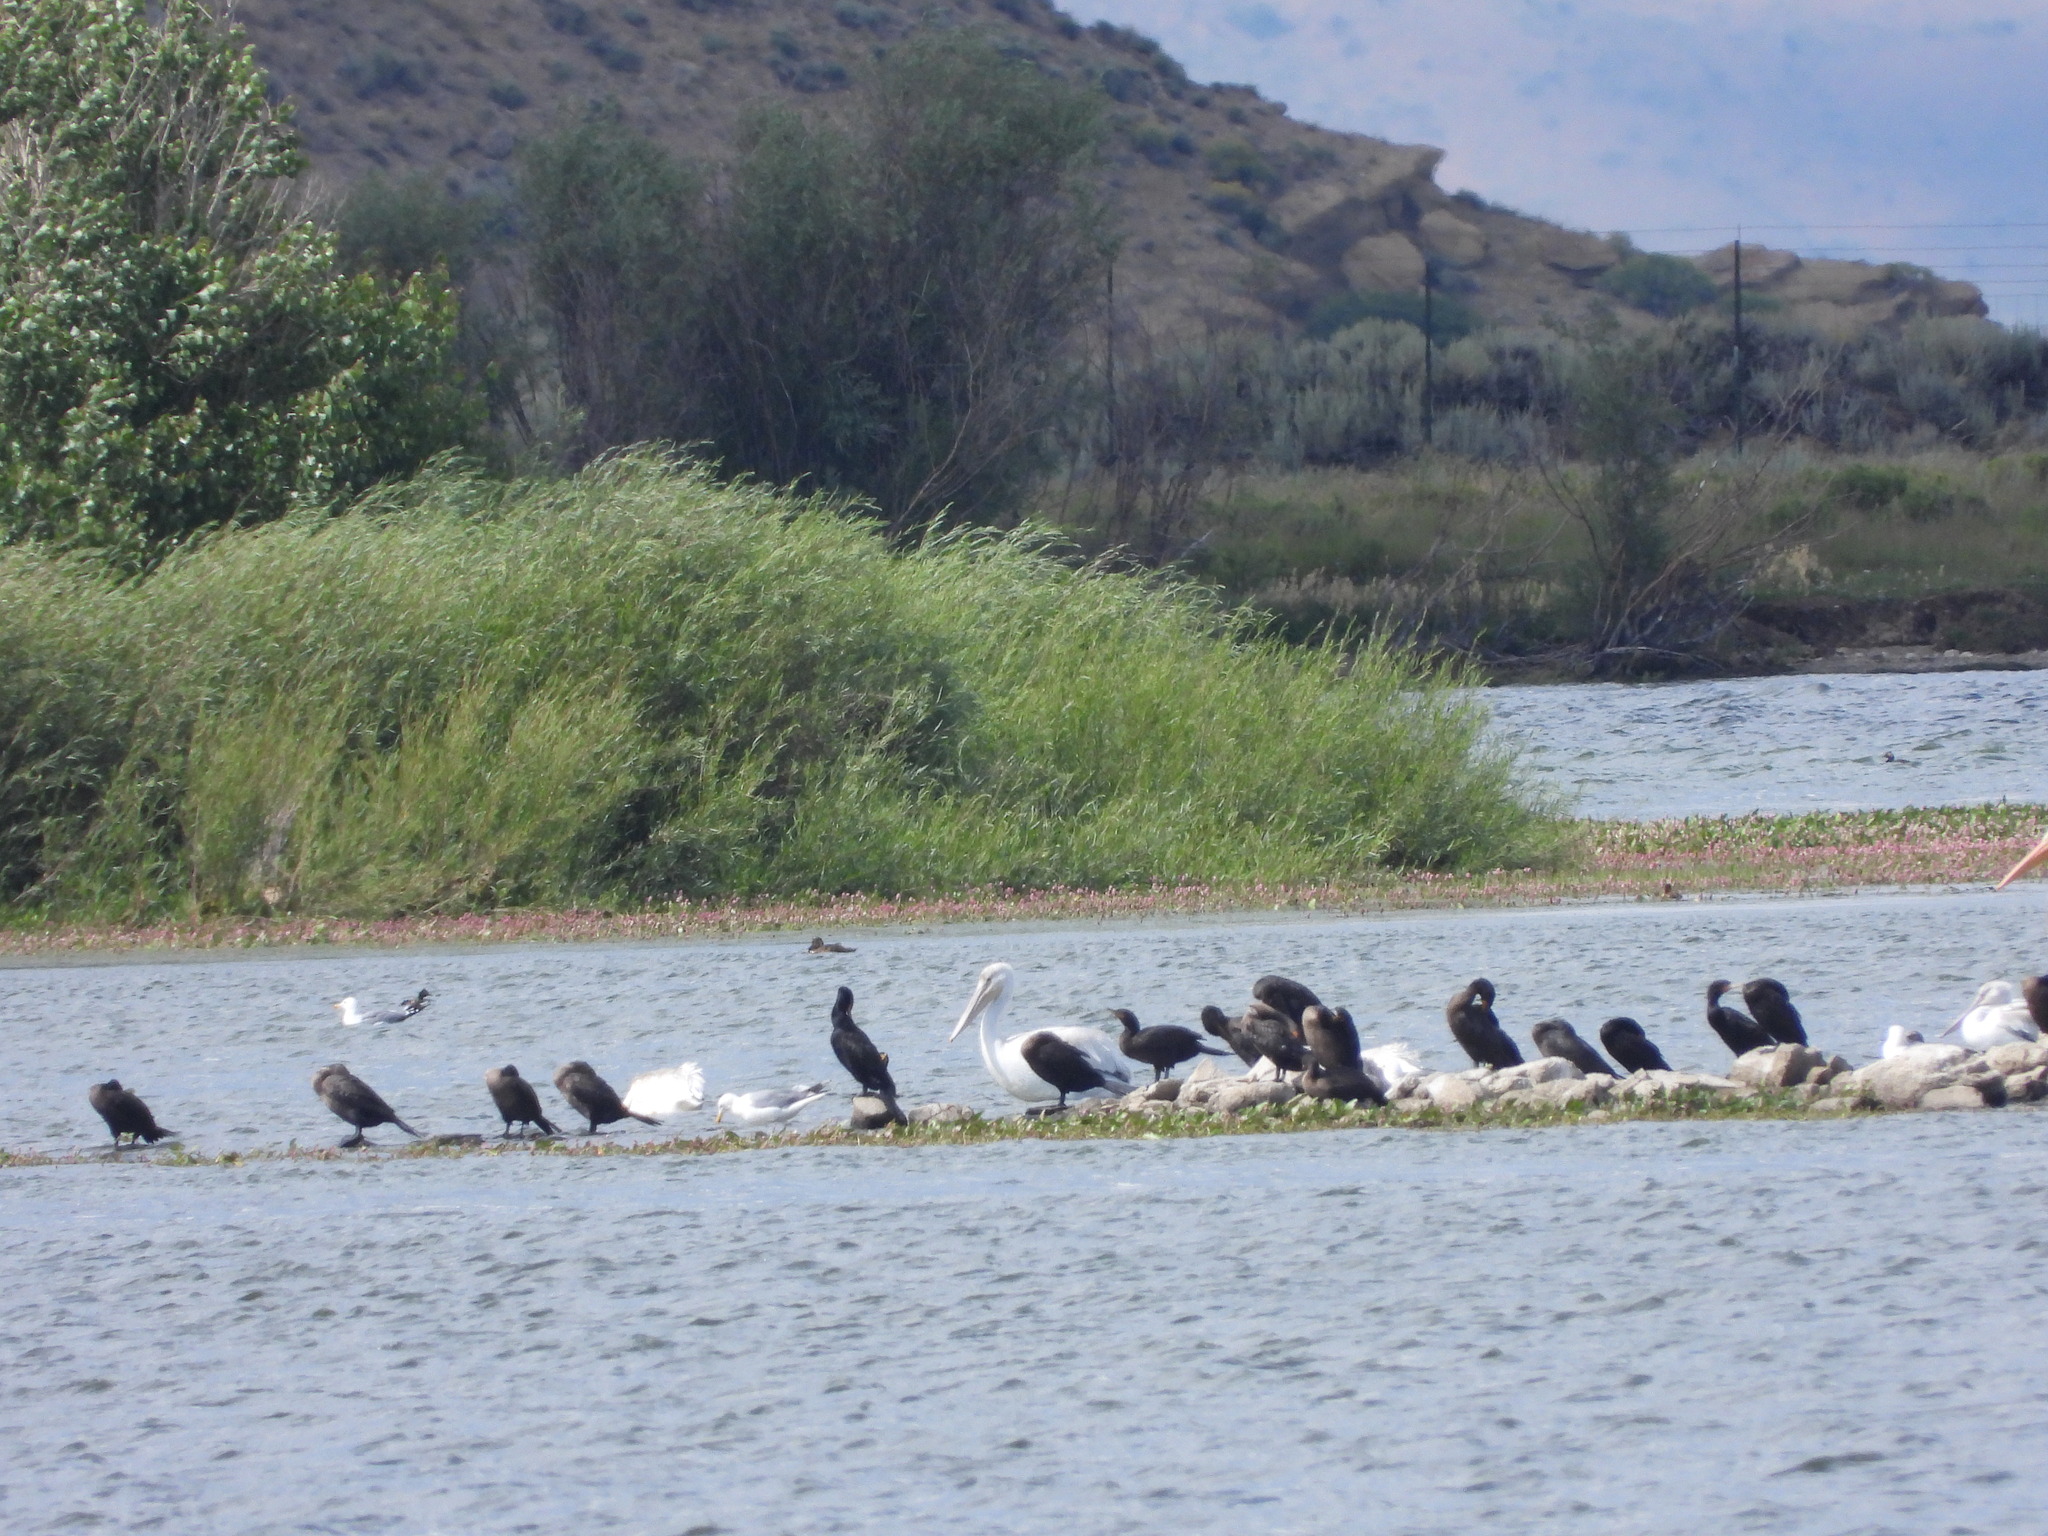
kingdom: Animalia
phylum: Chordata
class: Aves
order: Suliformes
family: Phalacrocoracidae
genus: Phalacrocorax
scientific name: Phalacrocorax auritus
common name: Double-crested cormorant
